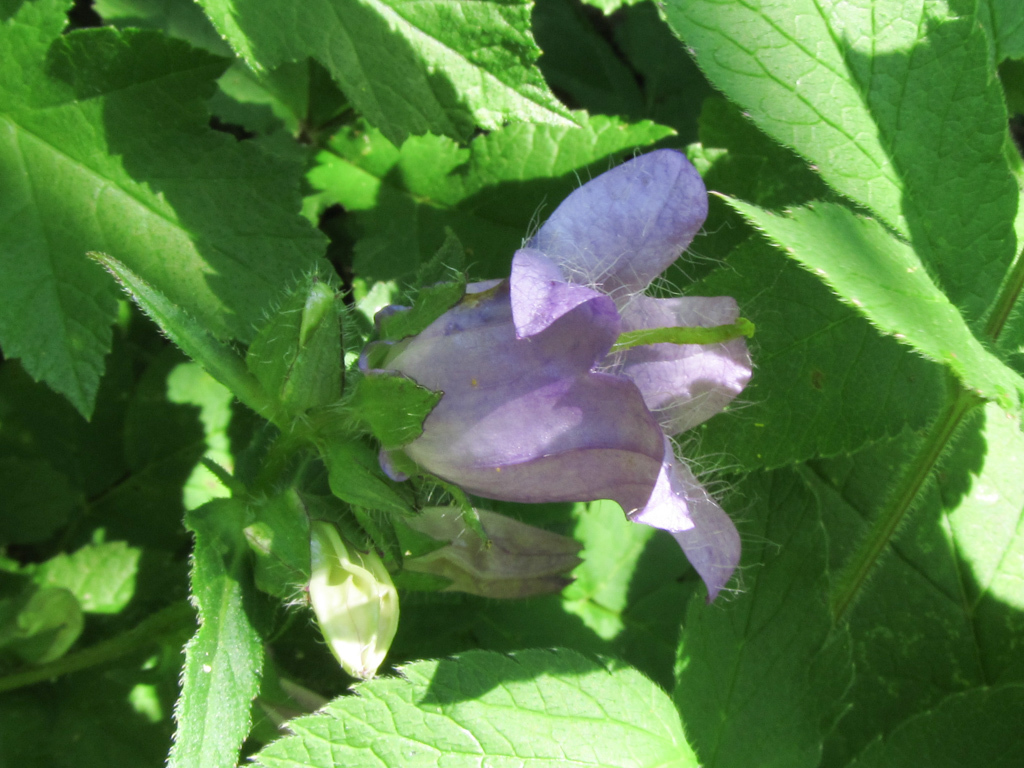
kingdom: Plantae
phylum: Tracheophyta
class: Magnoliopsida
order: Asterales
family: Campanulaceae
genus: Campanula
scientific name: Campanula barbata
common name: Bearded bellflower
